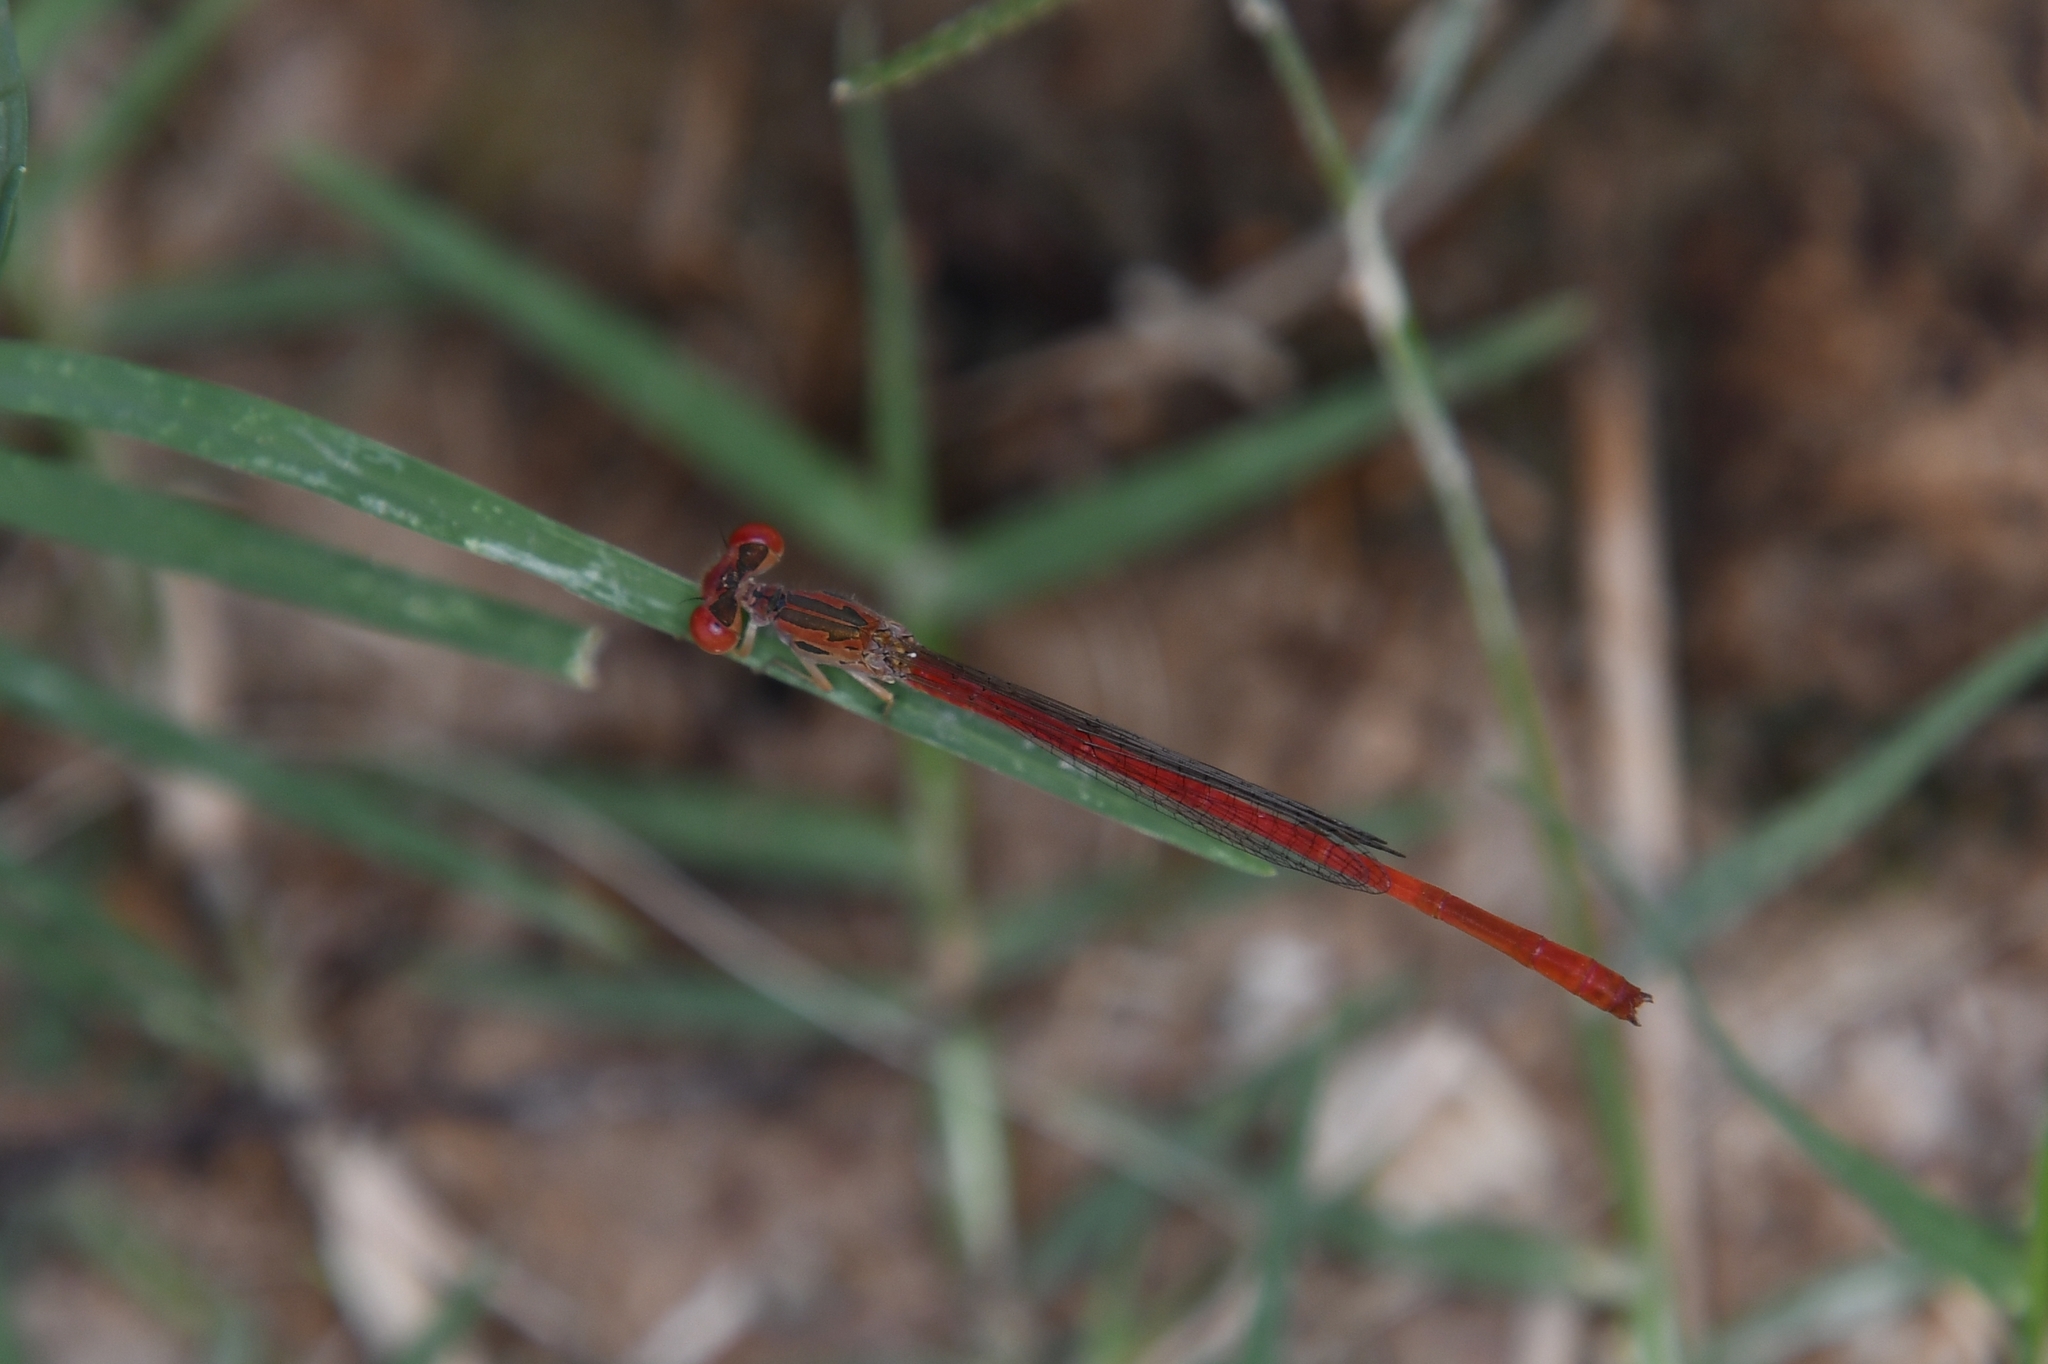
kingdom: Animalia
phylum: Arthropoda
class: Insecta
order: Odonata
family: Coenagrionidae
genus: Telebasis
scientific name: Telebasis salva
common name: Desert firetail
